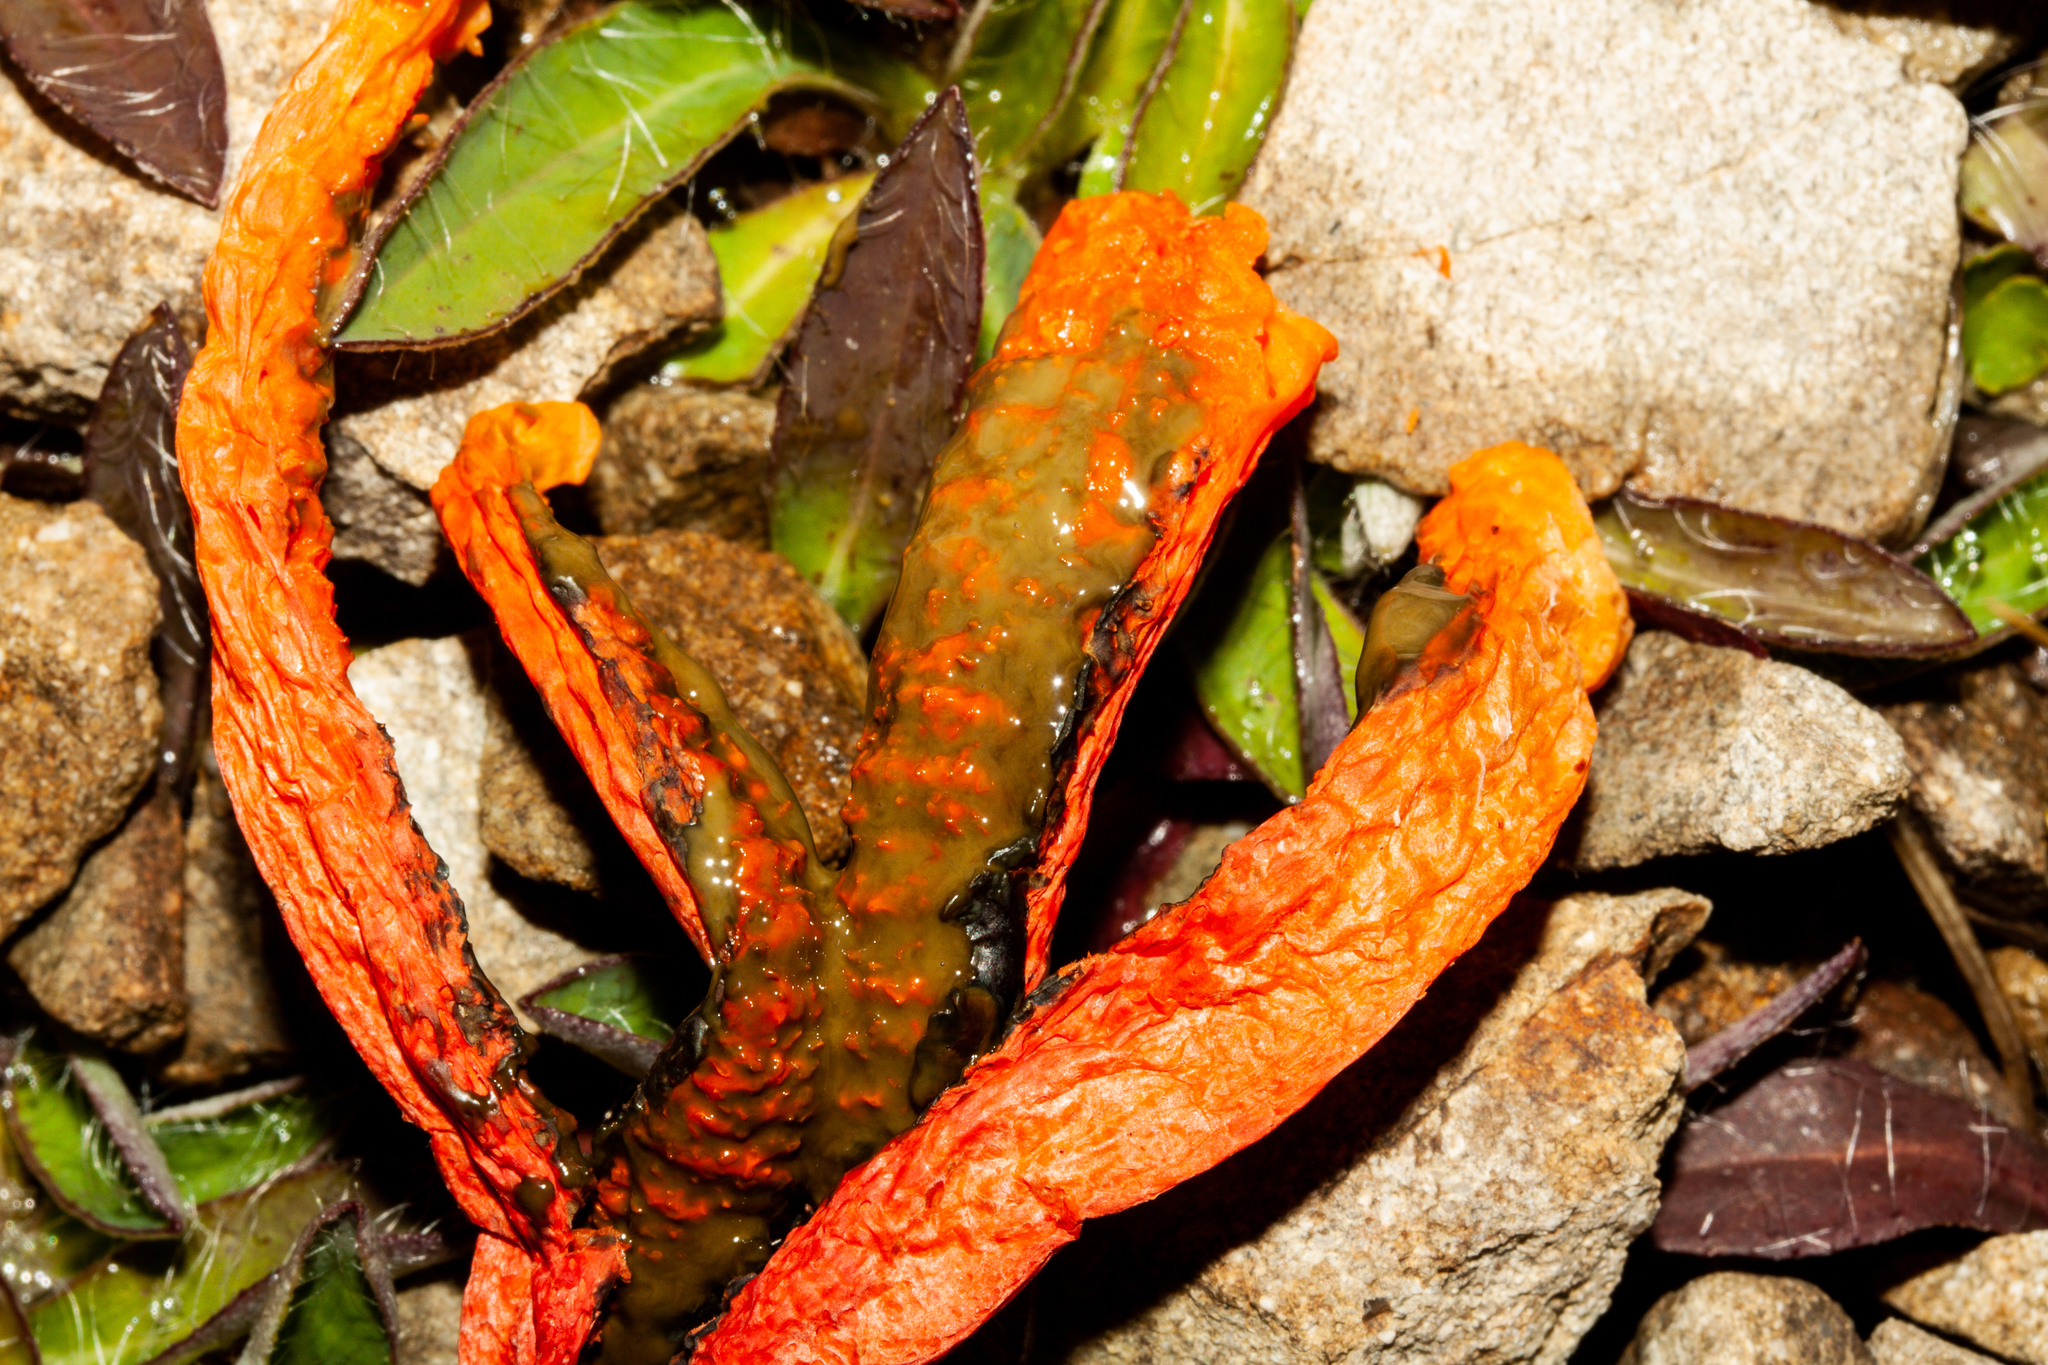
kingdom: Fungi
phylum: Basidiomycota
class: Agaricomycetes
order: Phallales
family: Phallaceae
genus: Clathrus
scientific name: Clathrus archeri
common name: Devil's fingers
